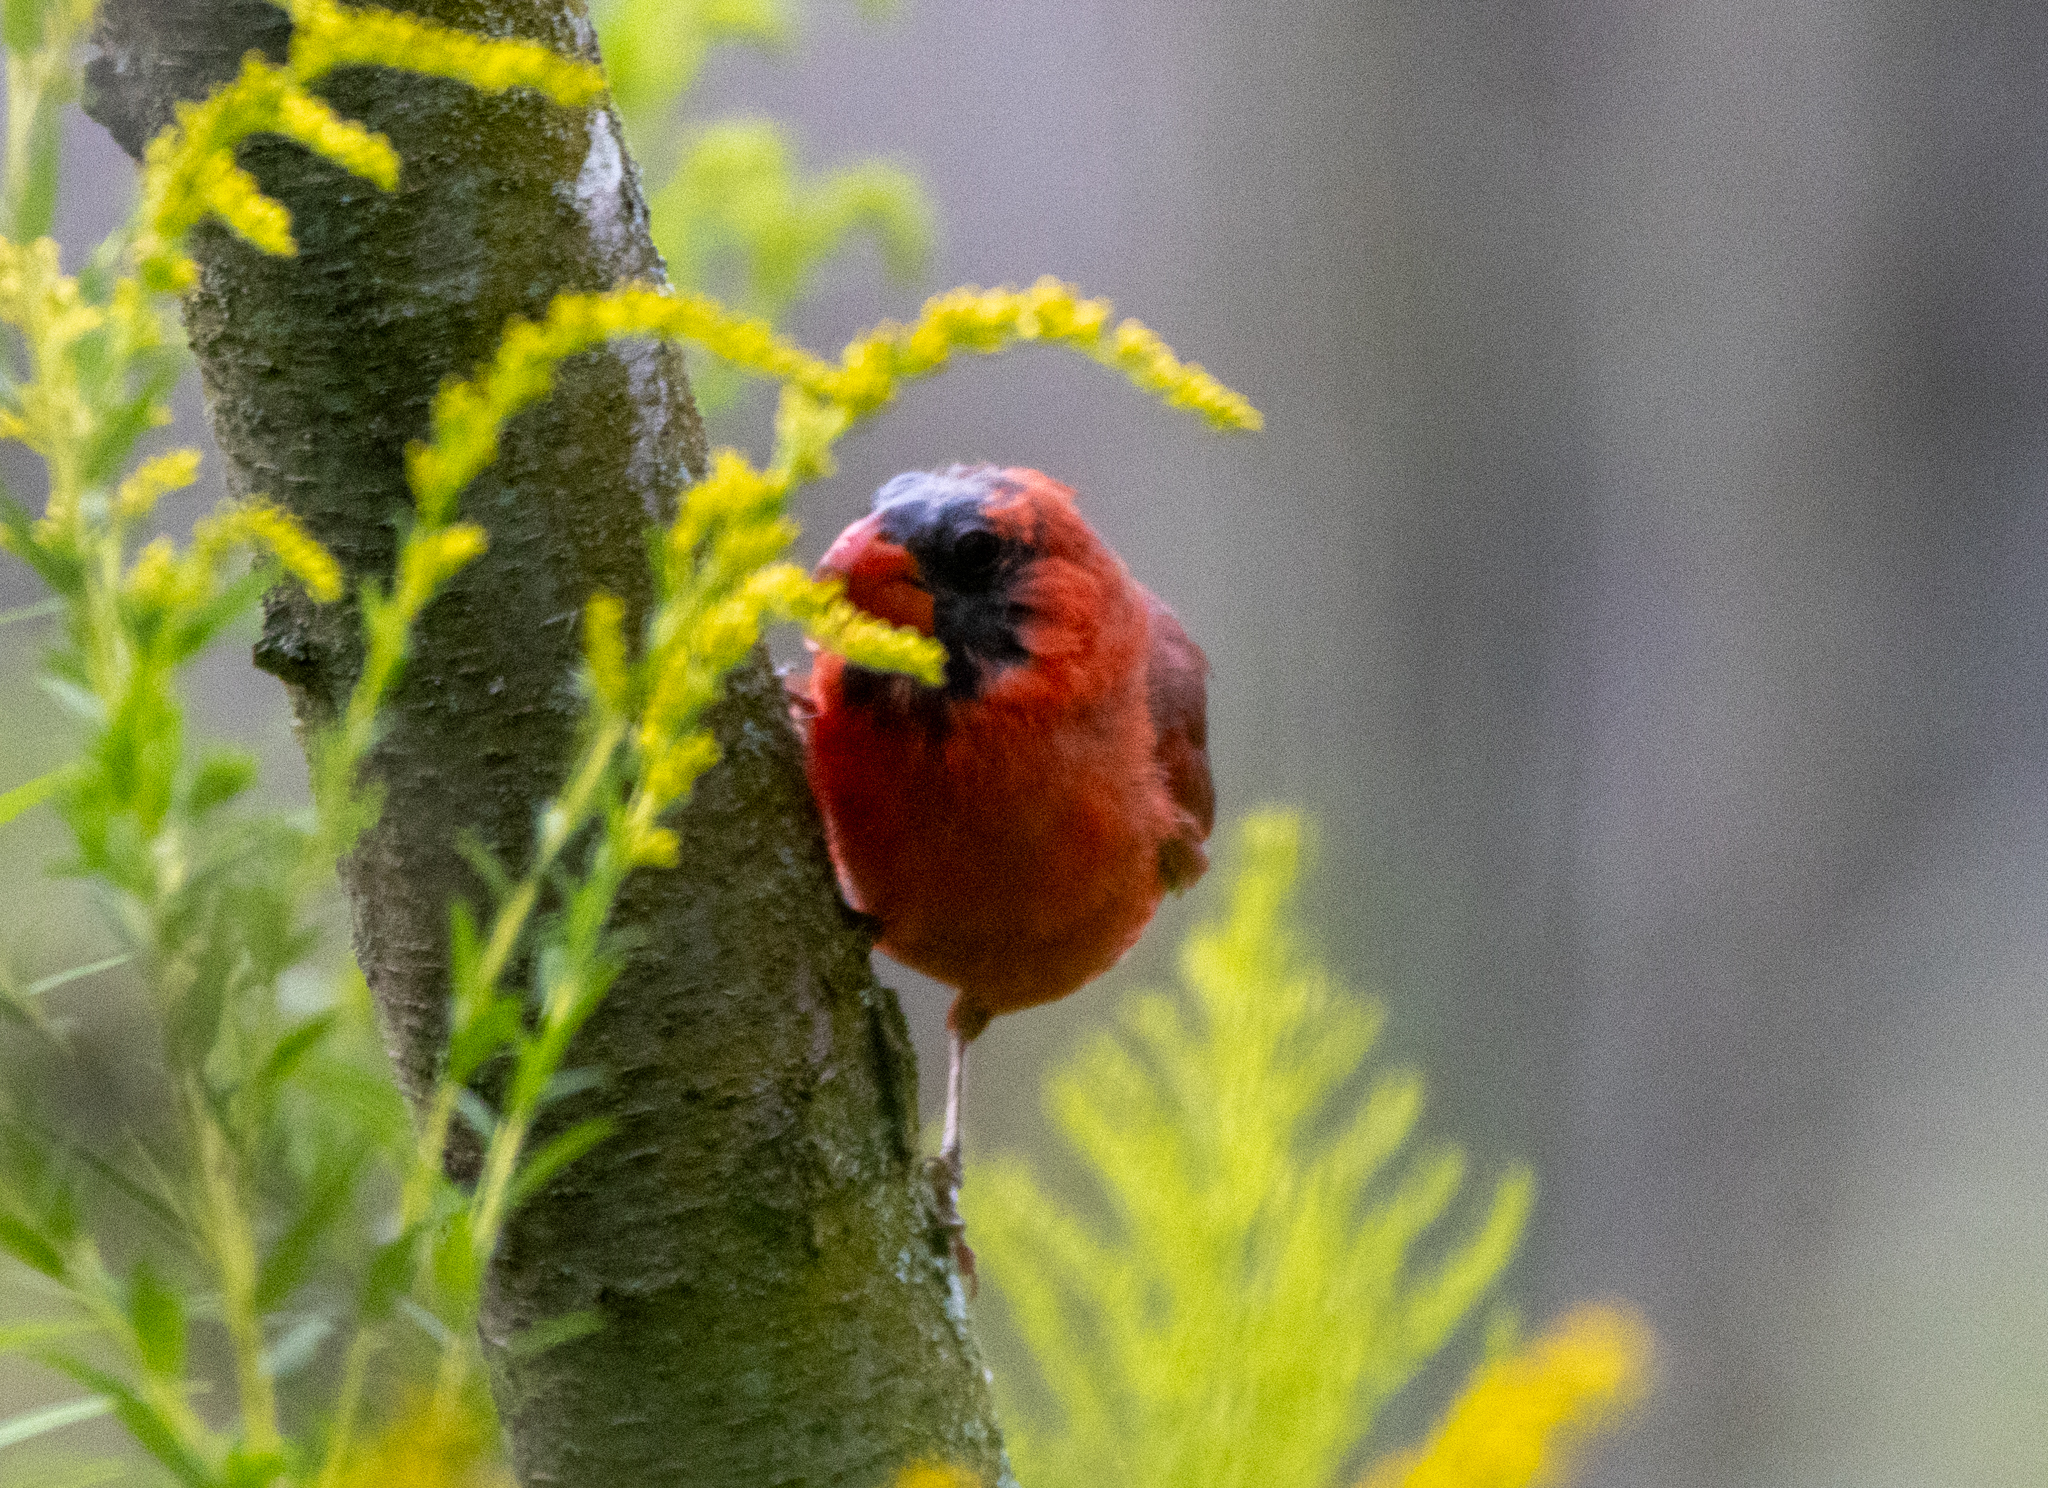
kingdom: Animalia
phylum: Chordata
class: Aves
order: Passeriformes
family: Cardinalidae
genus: Cardinalis
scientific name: Cardinalis cardinalis
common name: Northern cardinal
